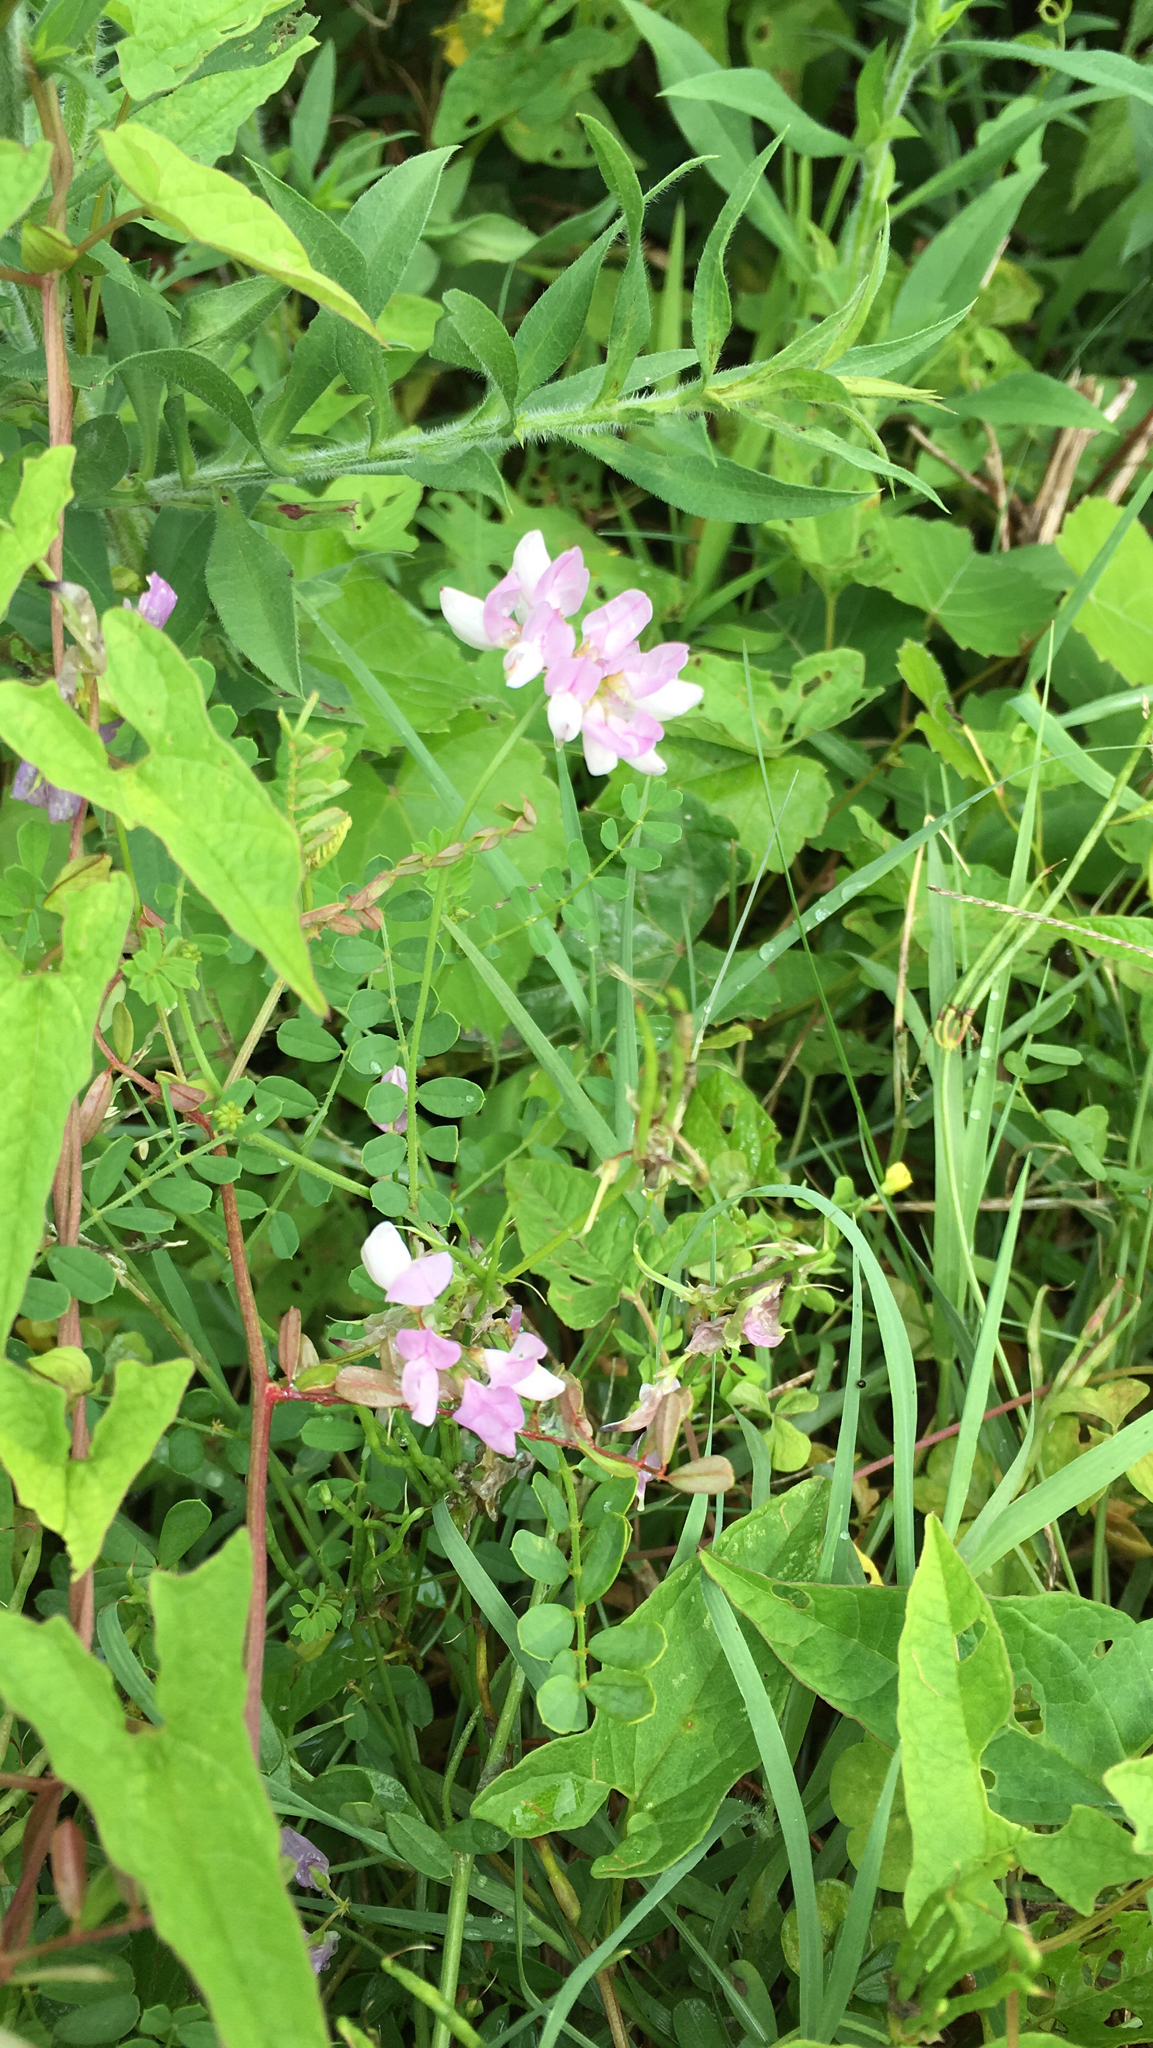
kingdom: Plantae
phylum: Tracheophyta
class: Magnoliopsida
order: Fabales
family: Fabaceae
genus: Coronilla
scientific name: Coronilla varia
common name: Crownvetch
